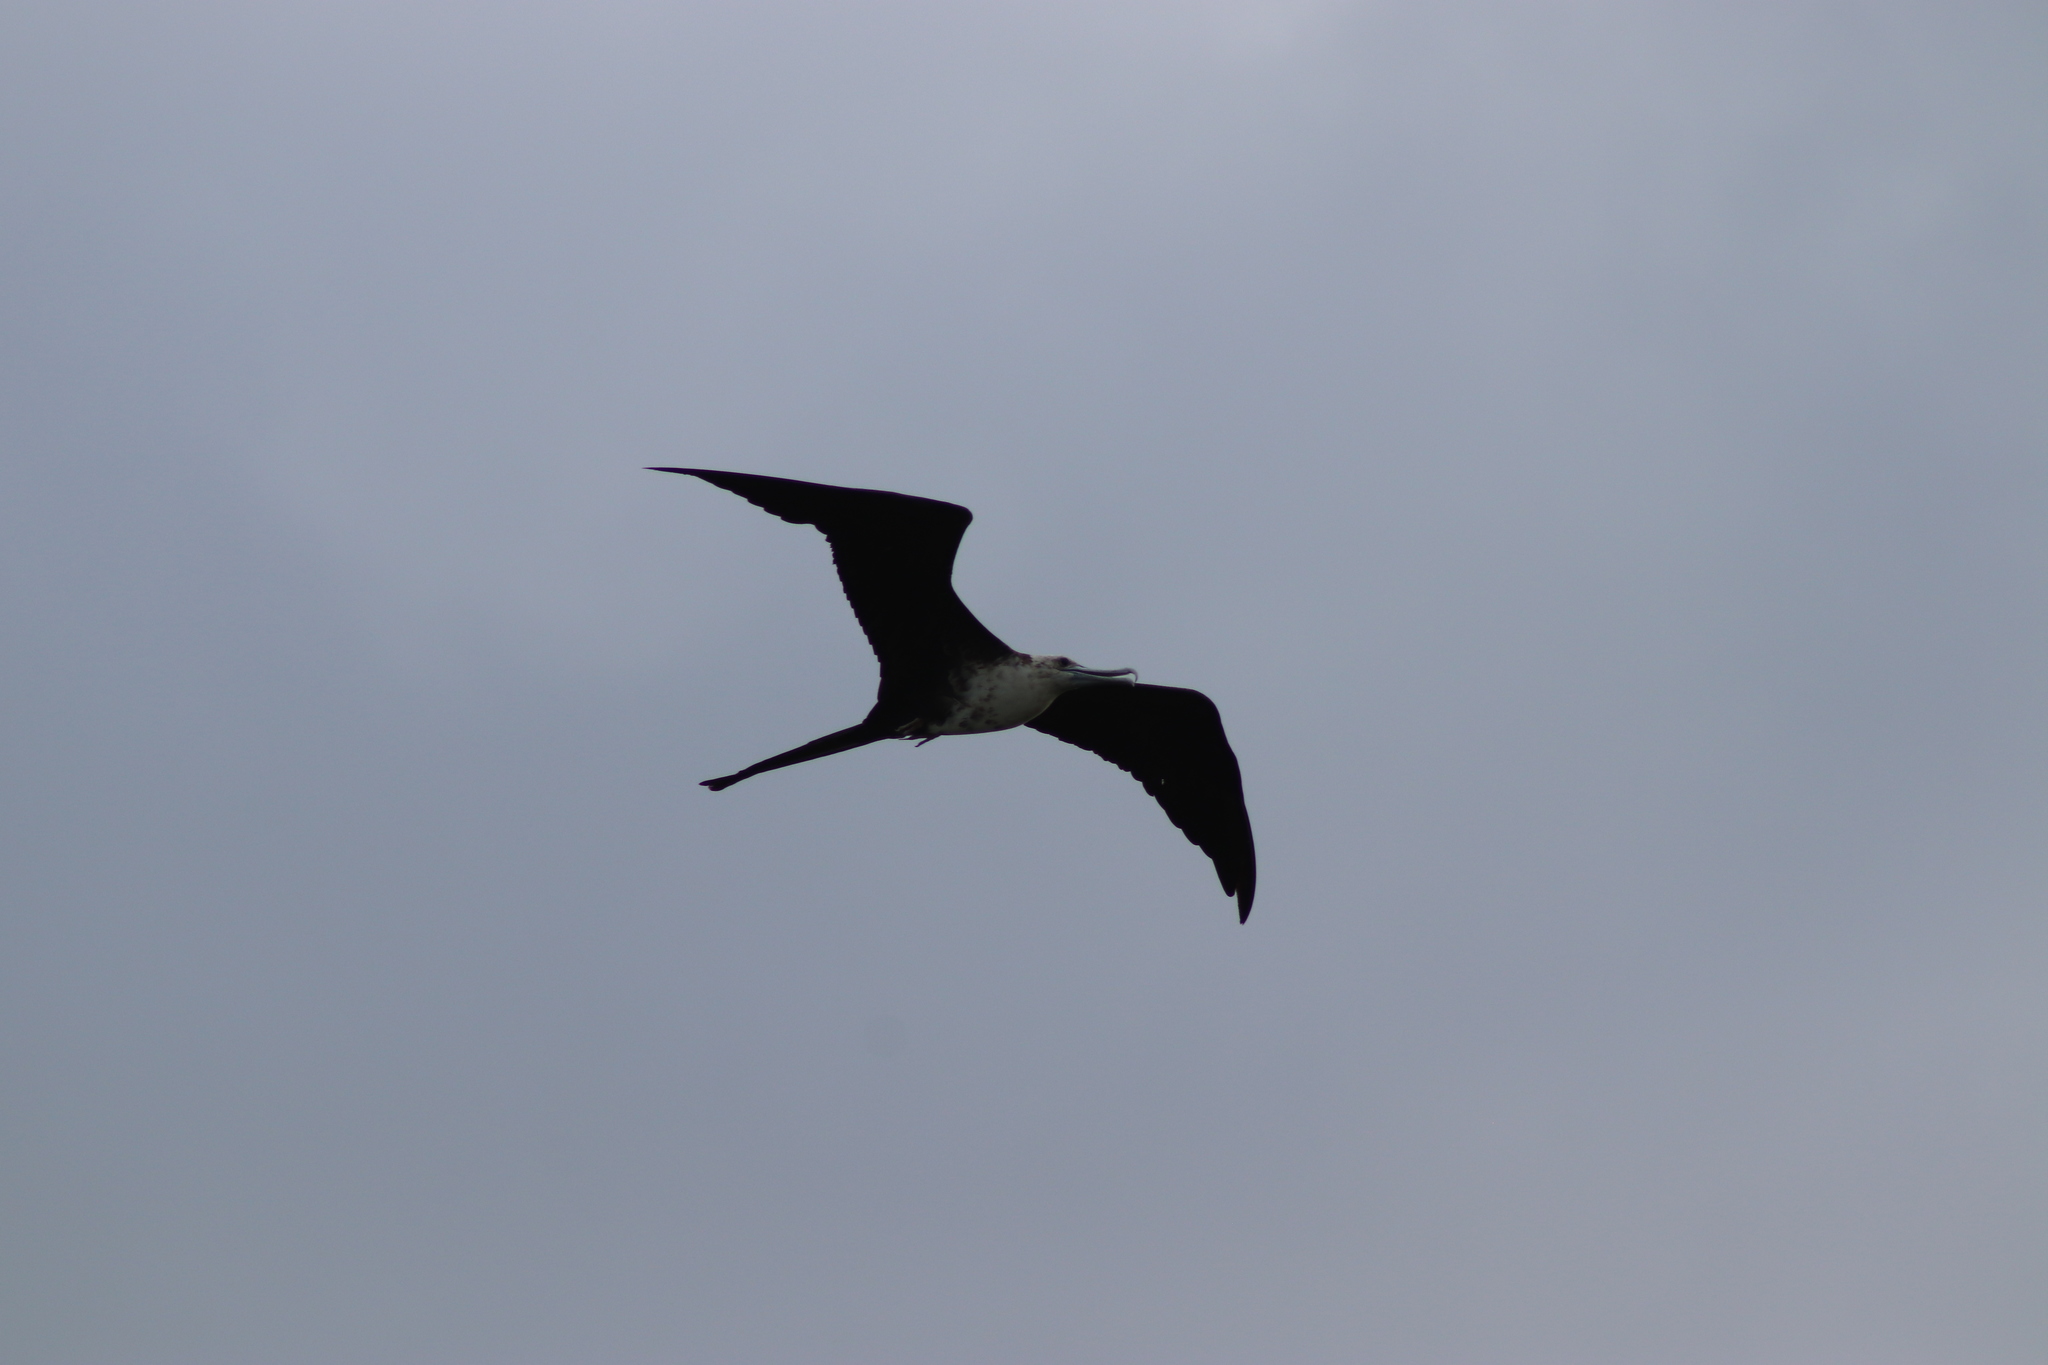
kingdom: Animalia
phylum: Chordata
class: Aves
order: Suliformes
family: Fregatidae
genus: Fregata
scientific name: Fregata magnificens
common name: Magnificent frigatebird
